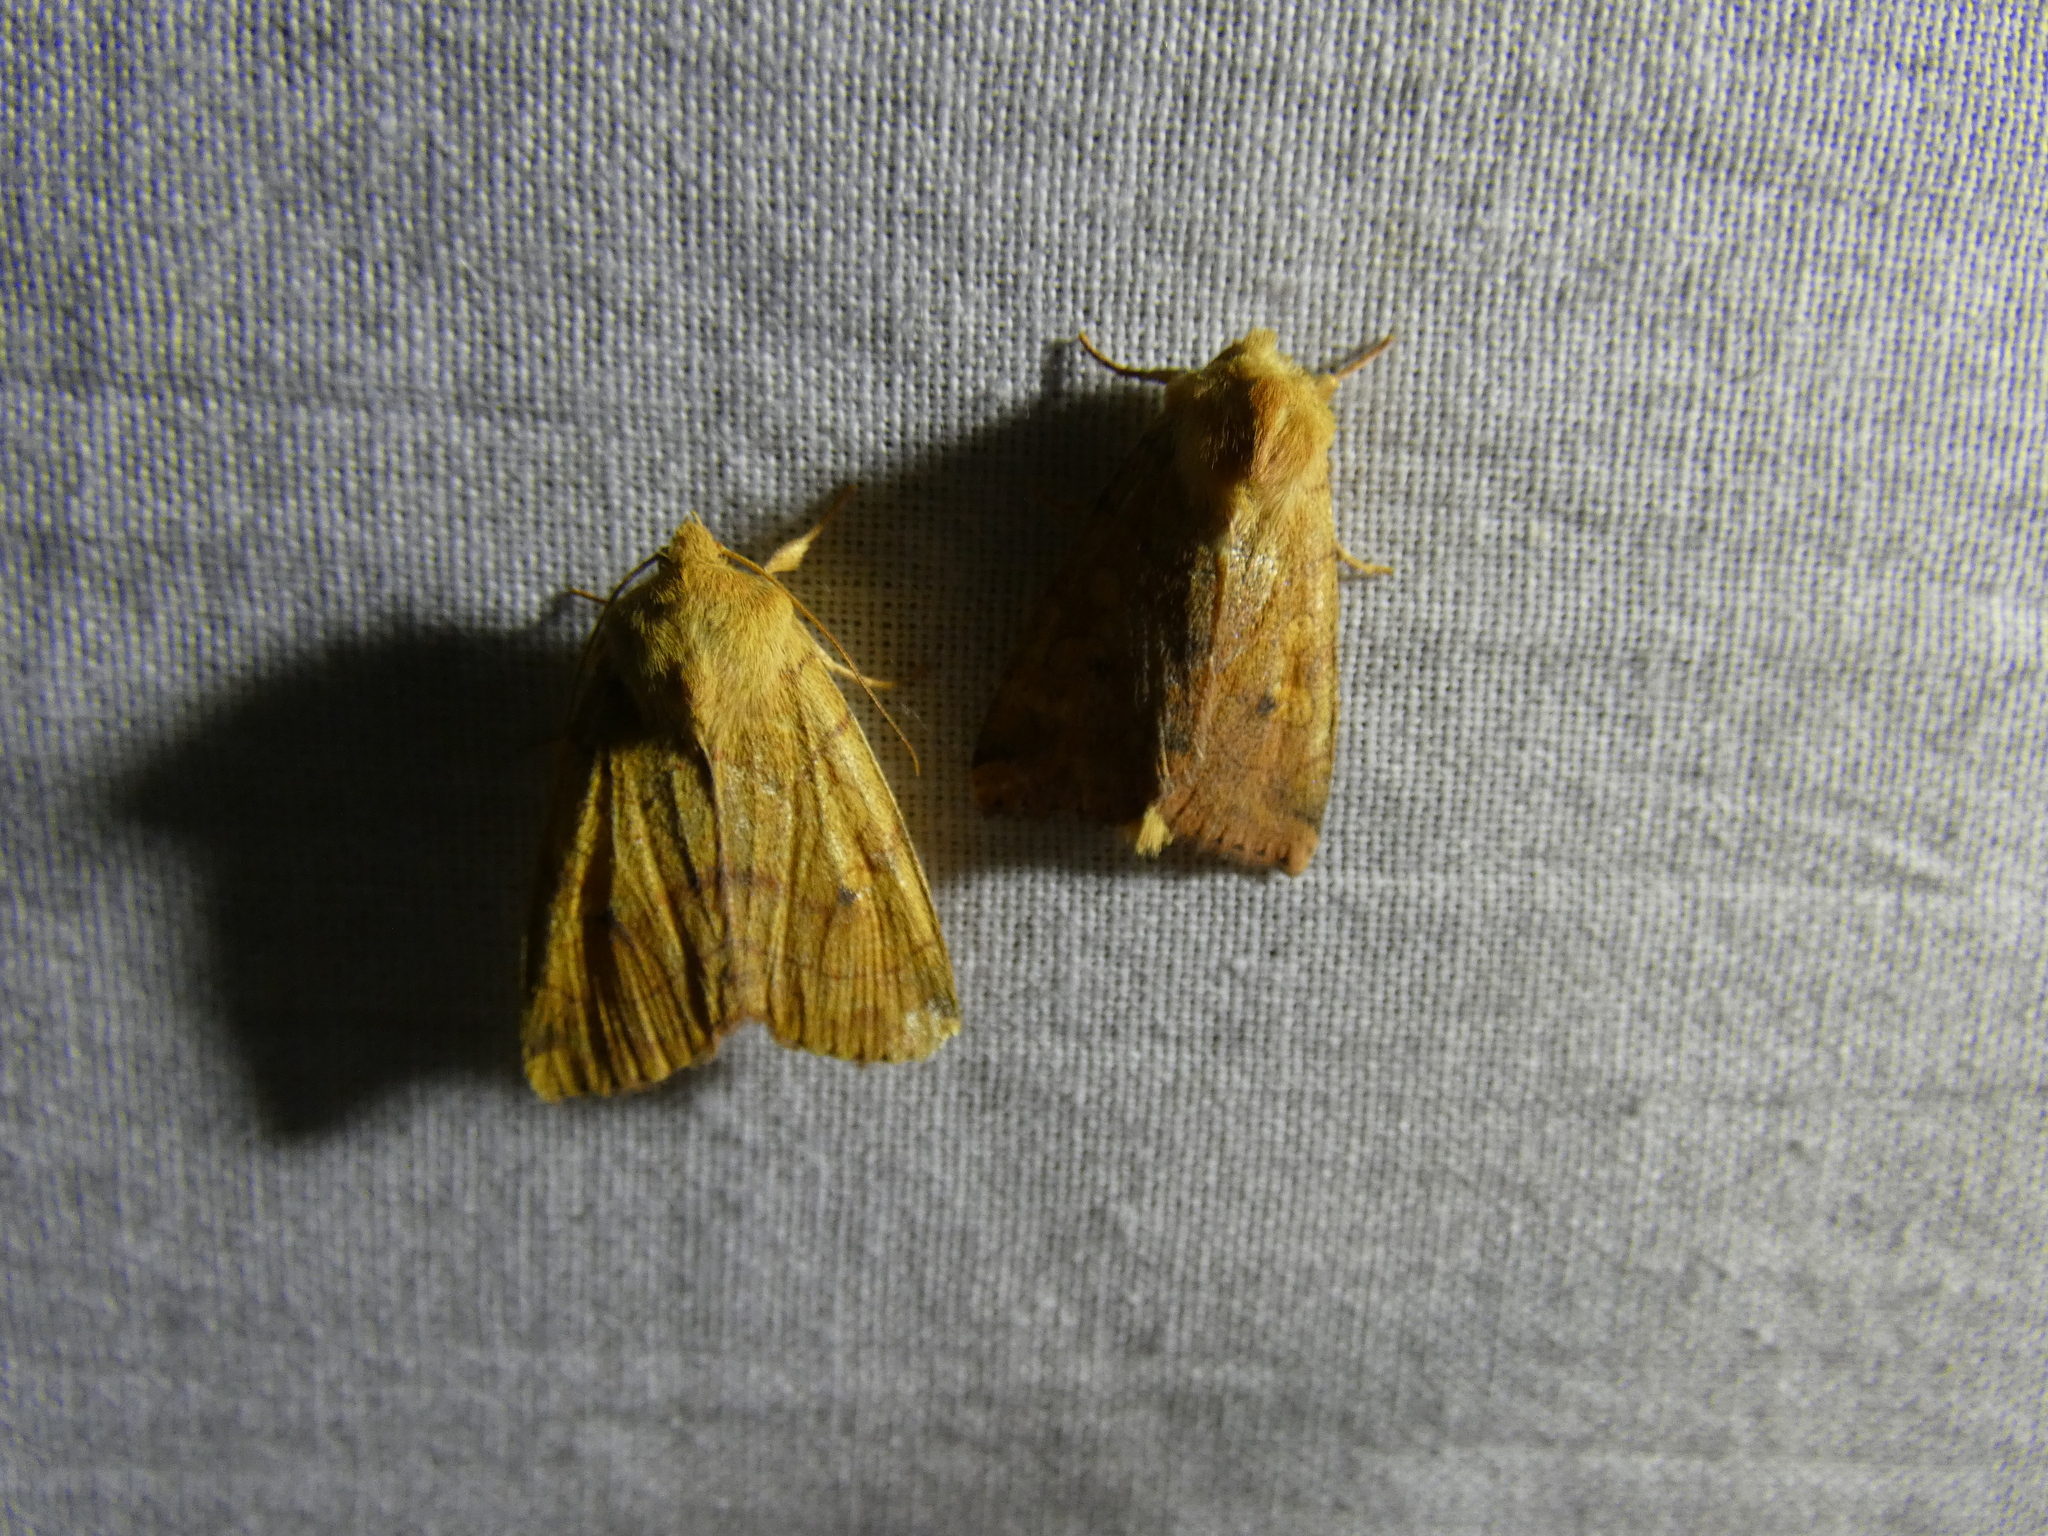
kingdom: Animalia
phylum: Arthropoda
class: Insecta
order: Lepidoptera
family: Noctuidae
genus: Enargia
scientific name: Enargia paleacea
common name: Angle-striped sallow
